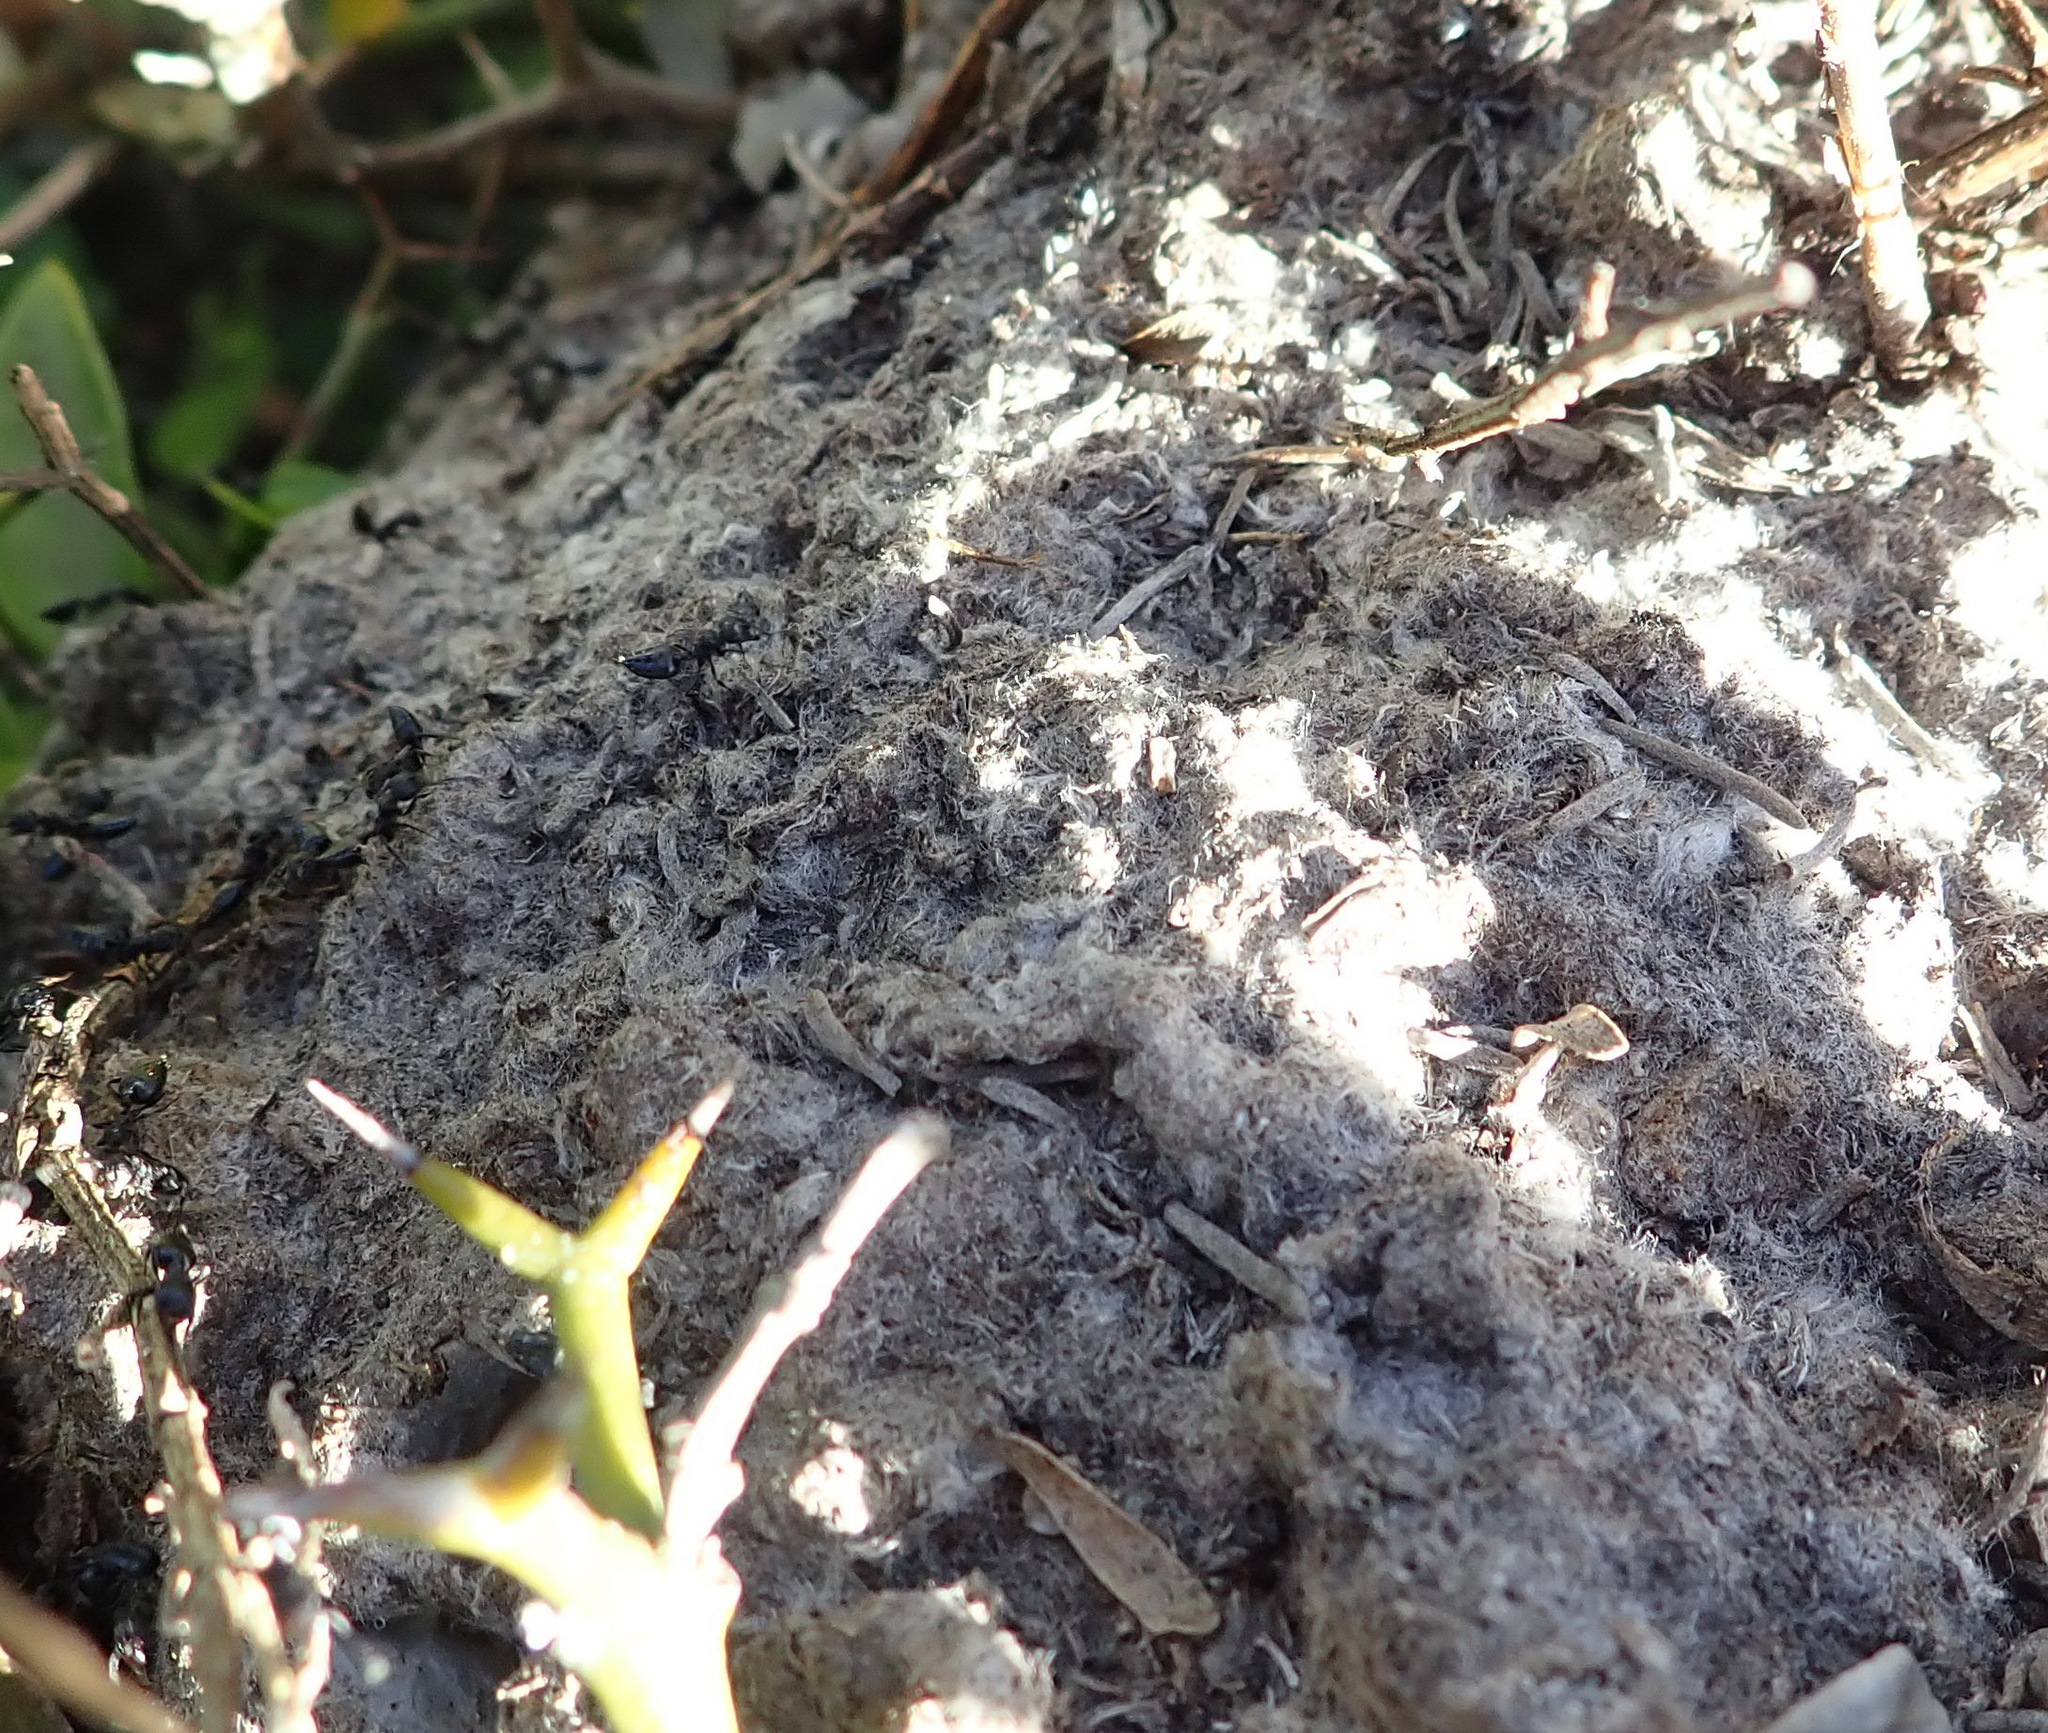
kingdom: Animalia
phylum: Arthropoda
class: Insecta
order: Hymenoptera
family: Formicidae
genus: Crematogaster
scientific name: Crematogaster peringueyi
